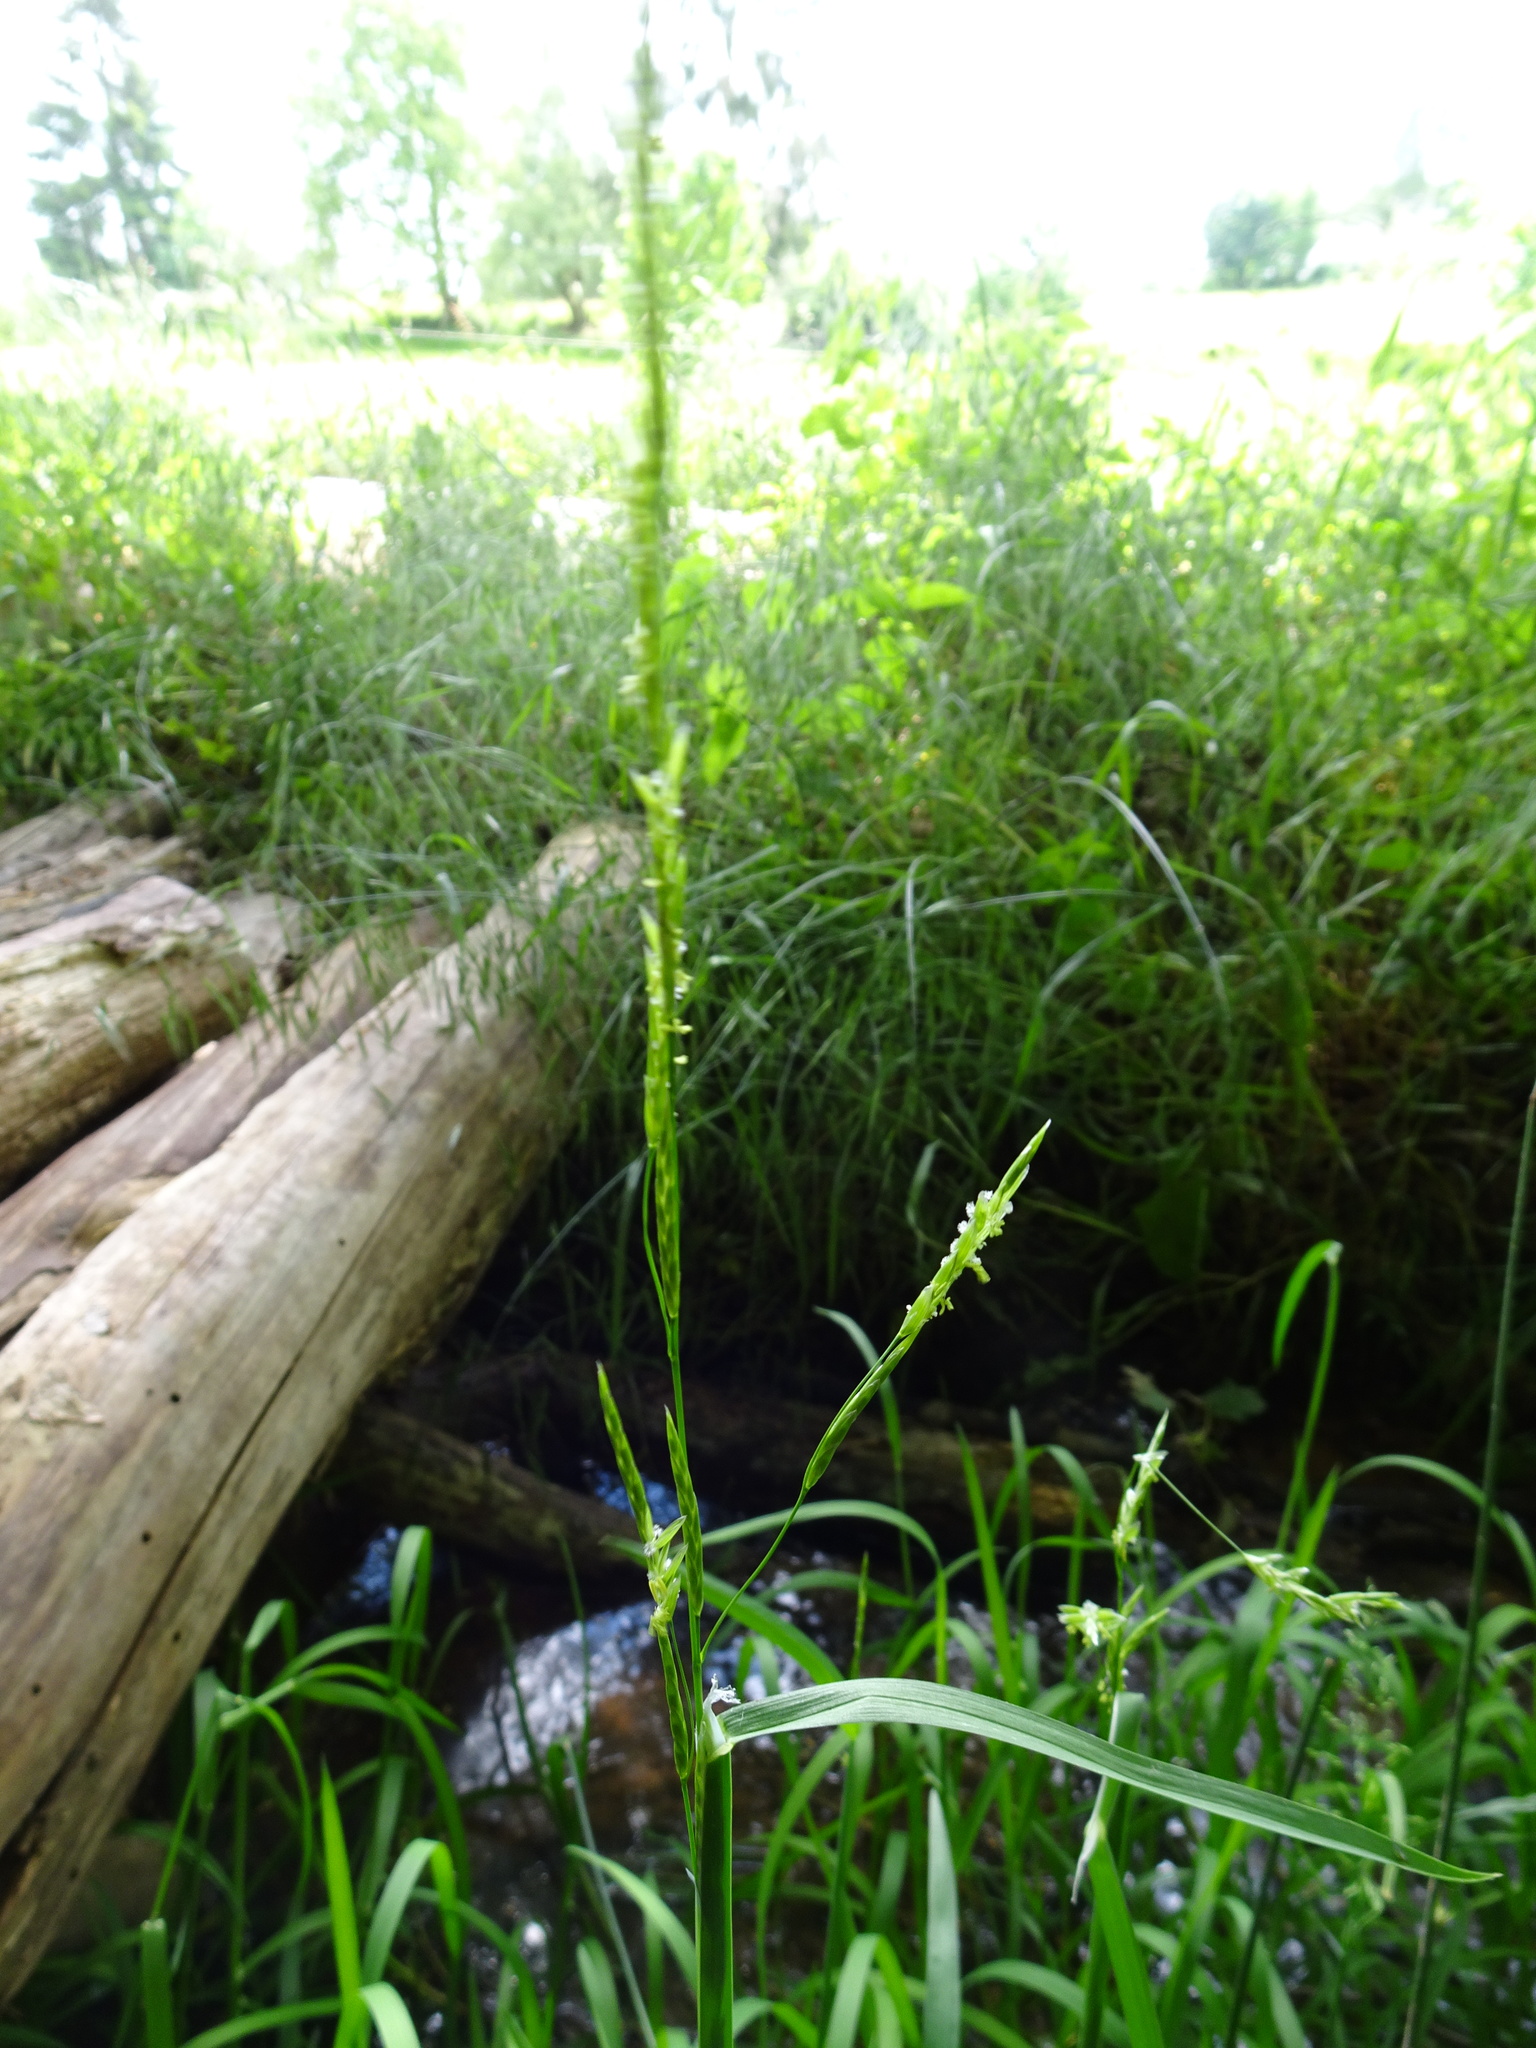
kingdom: Plantae
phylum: Tracheophyta
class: Liliopsida
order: Poales
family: Poaceae
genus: Glyceria
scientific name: Glyceria fluitans
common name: Floating sweet-grass
